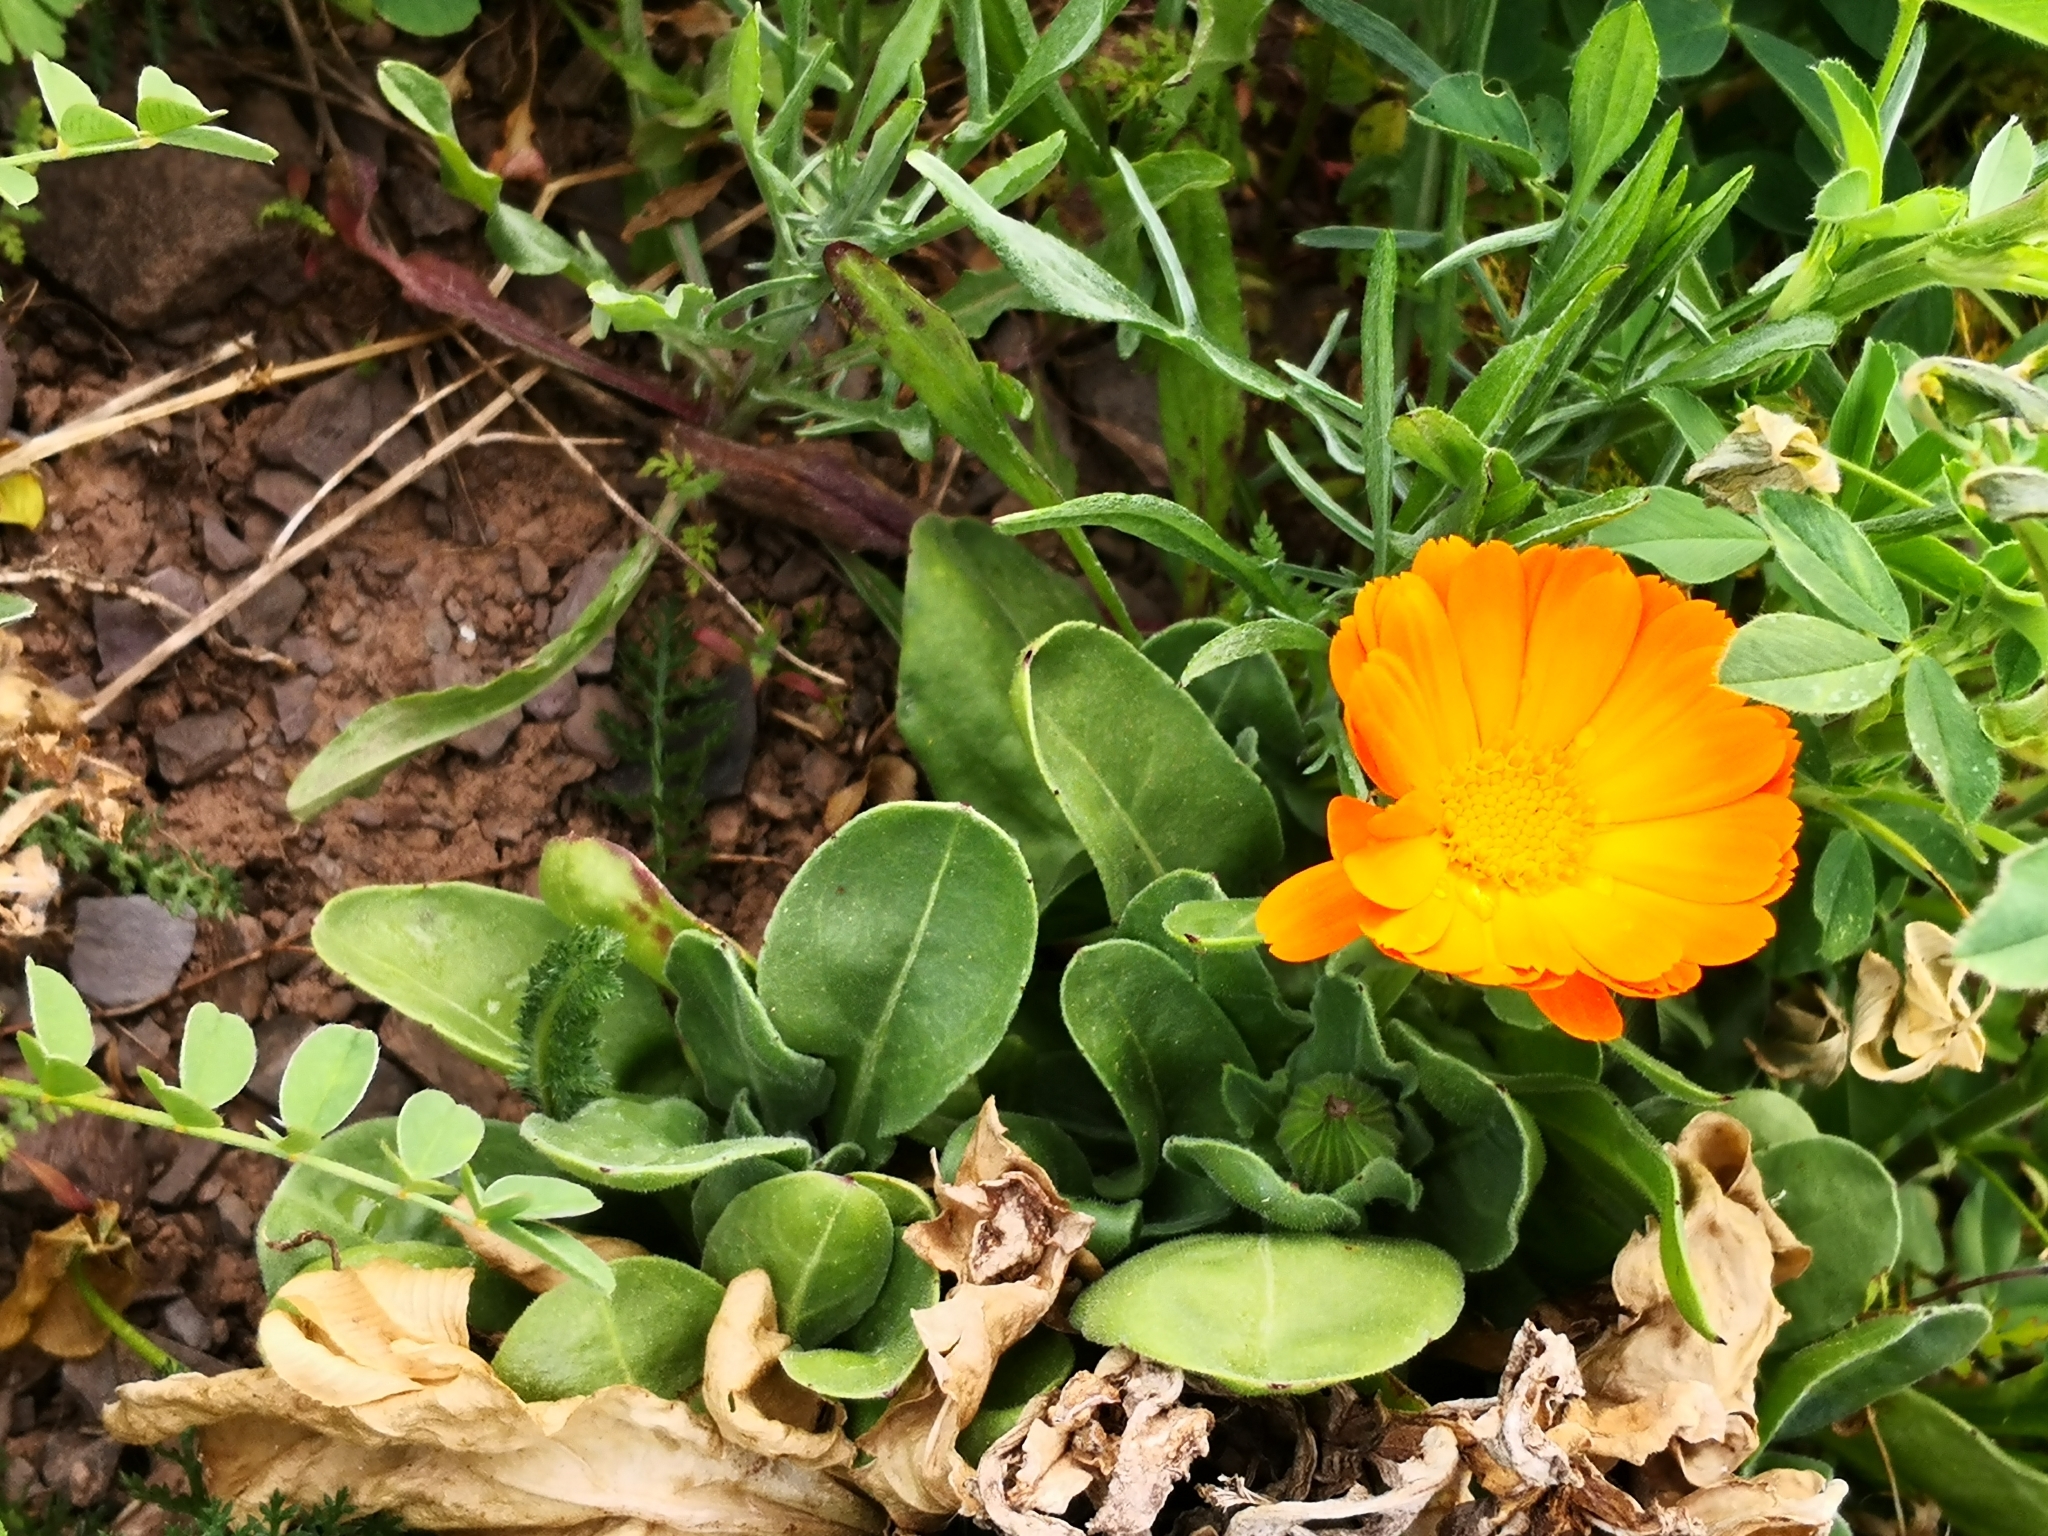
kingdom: Plantae
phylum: Tracheophyta
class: Magnoliopsida
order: Asterales
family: Asteraceae
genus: Calendula
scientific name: Calendula arvensis
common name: Field marigold
